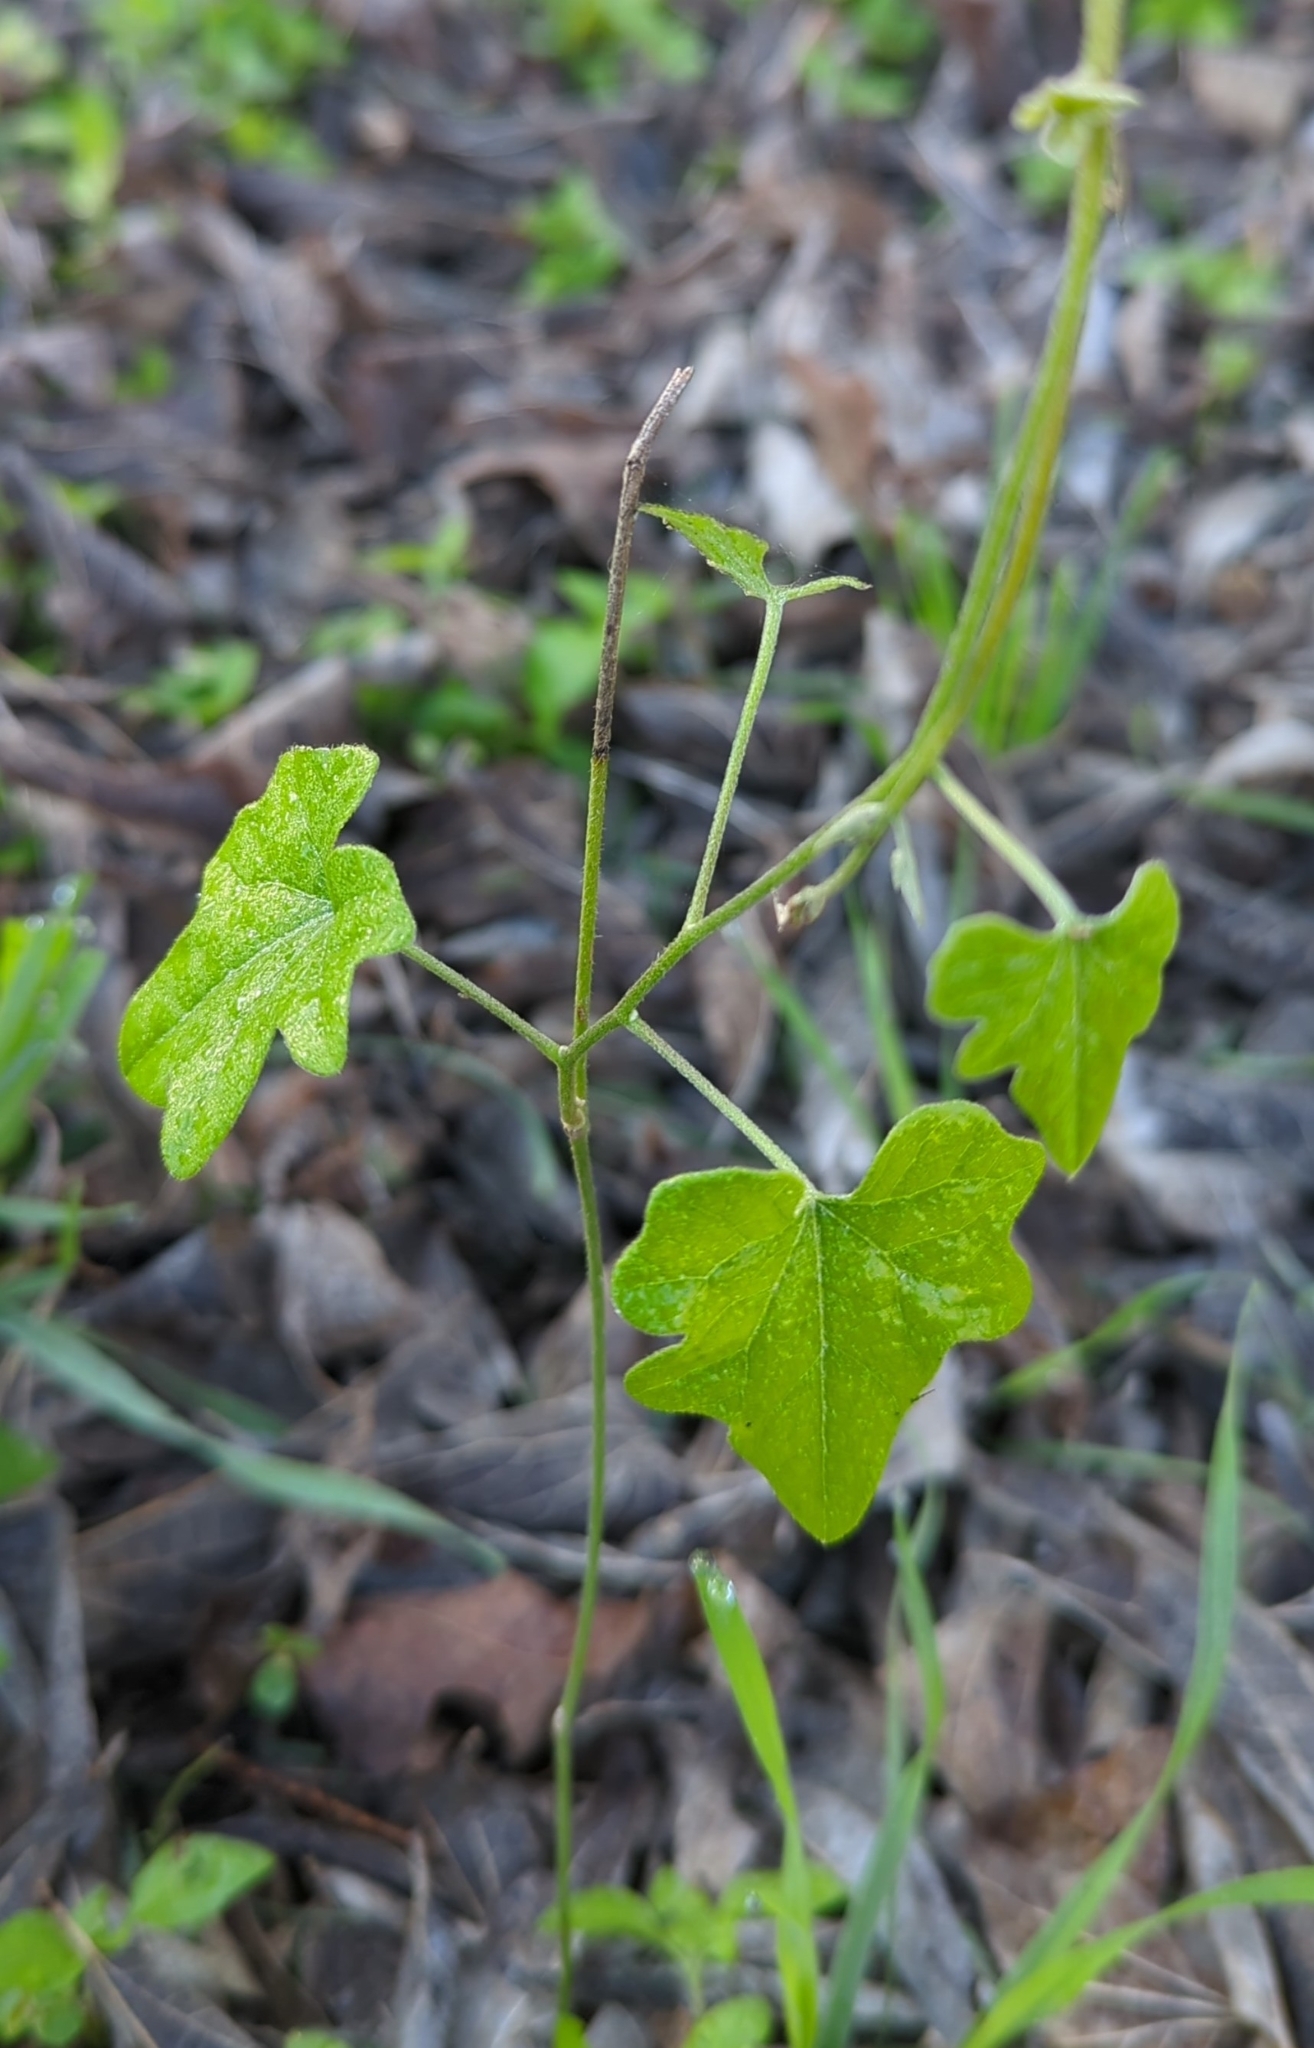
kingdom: Plantae
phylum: Tracheophyta
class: Magnoliopsida
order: Ranunculales
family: Menispermaceae
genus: Cocculus
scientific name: Cocculus carolinus
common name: Carolina moonseed
